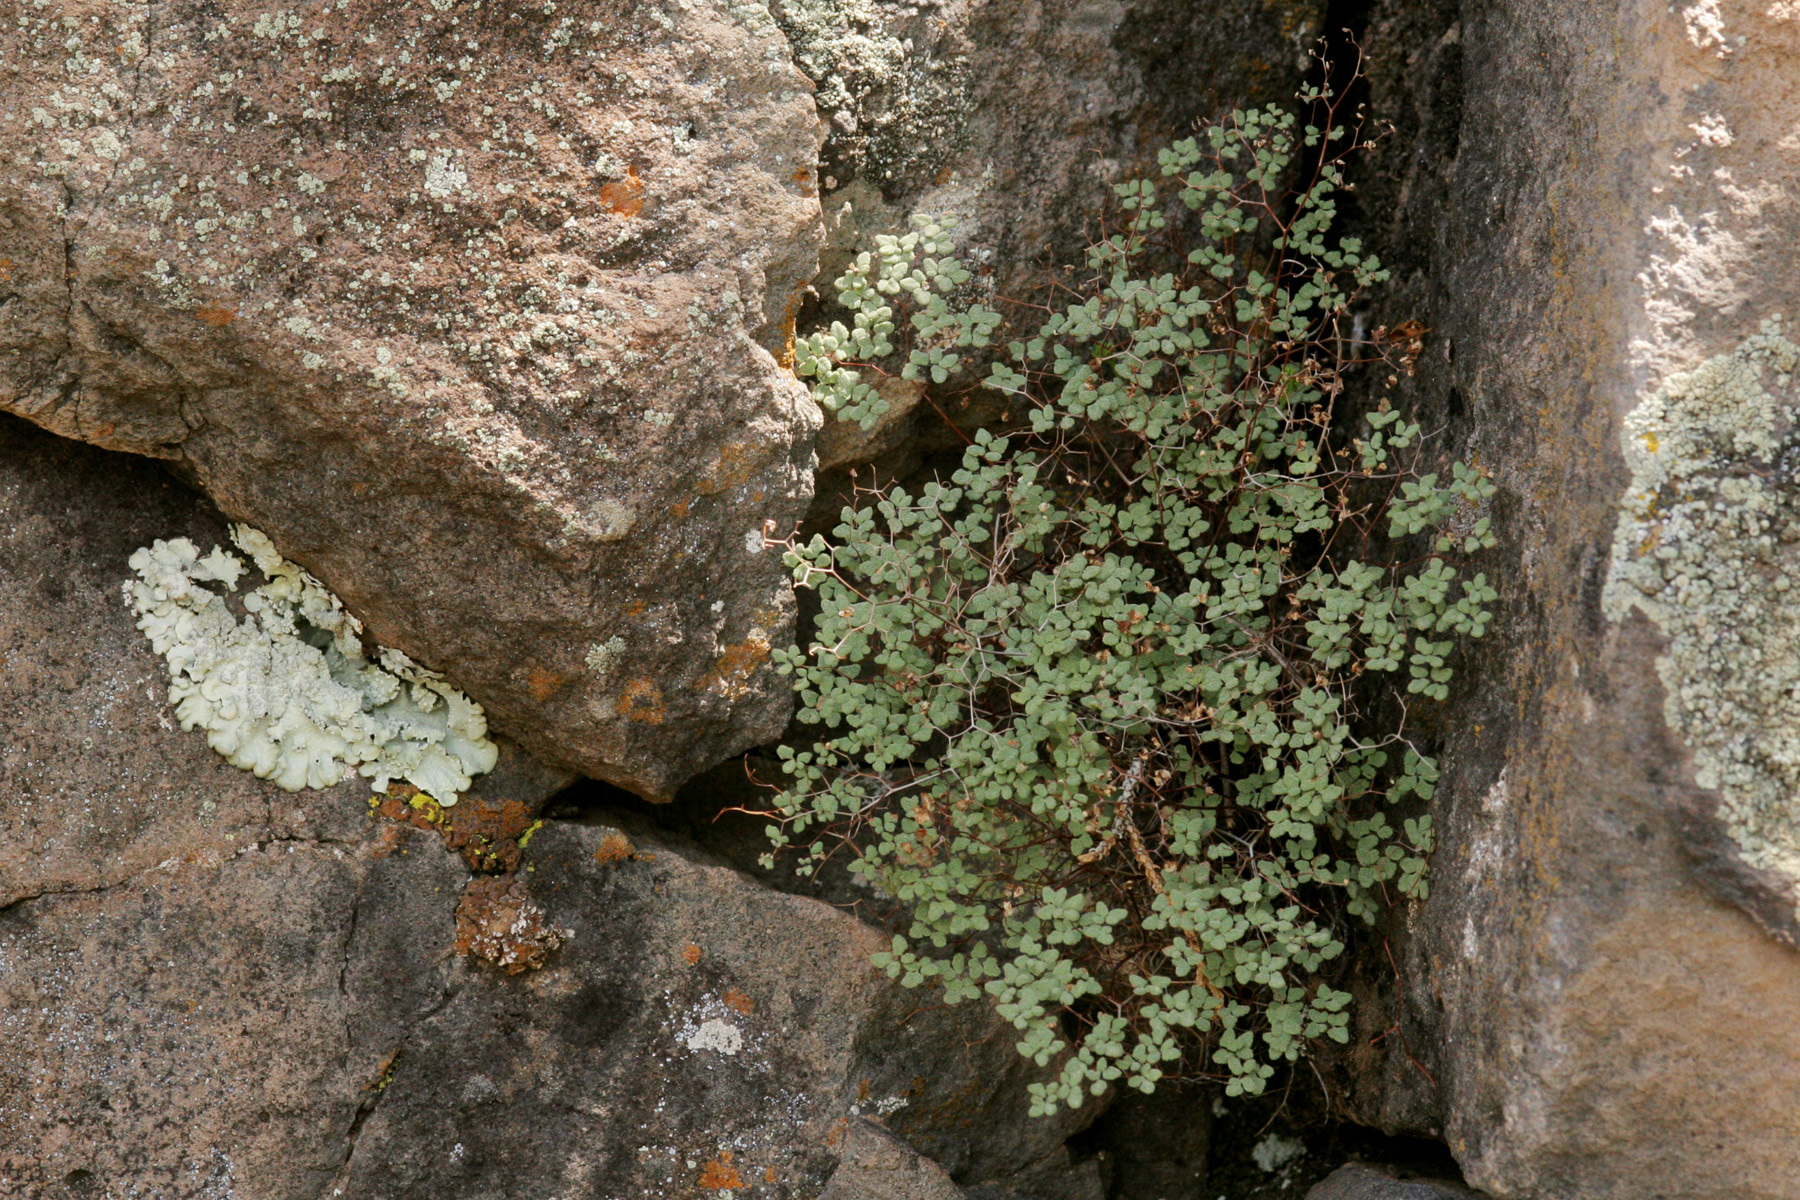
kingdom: Plantae
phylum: Tracheophyta
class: Polypodiopsida
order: Polypodiales
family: Pteridaceae
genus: Argyrochosma
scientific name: Argyrochosma fendleri
